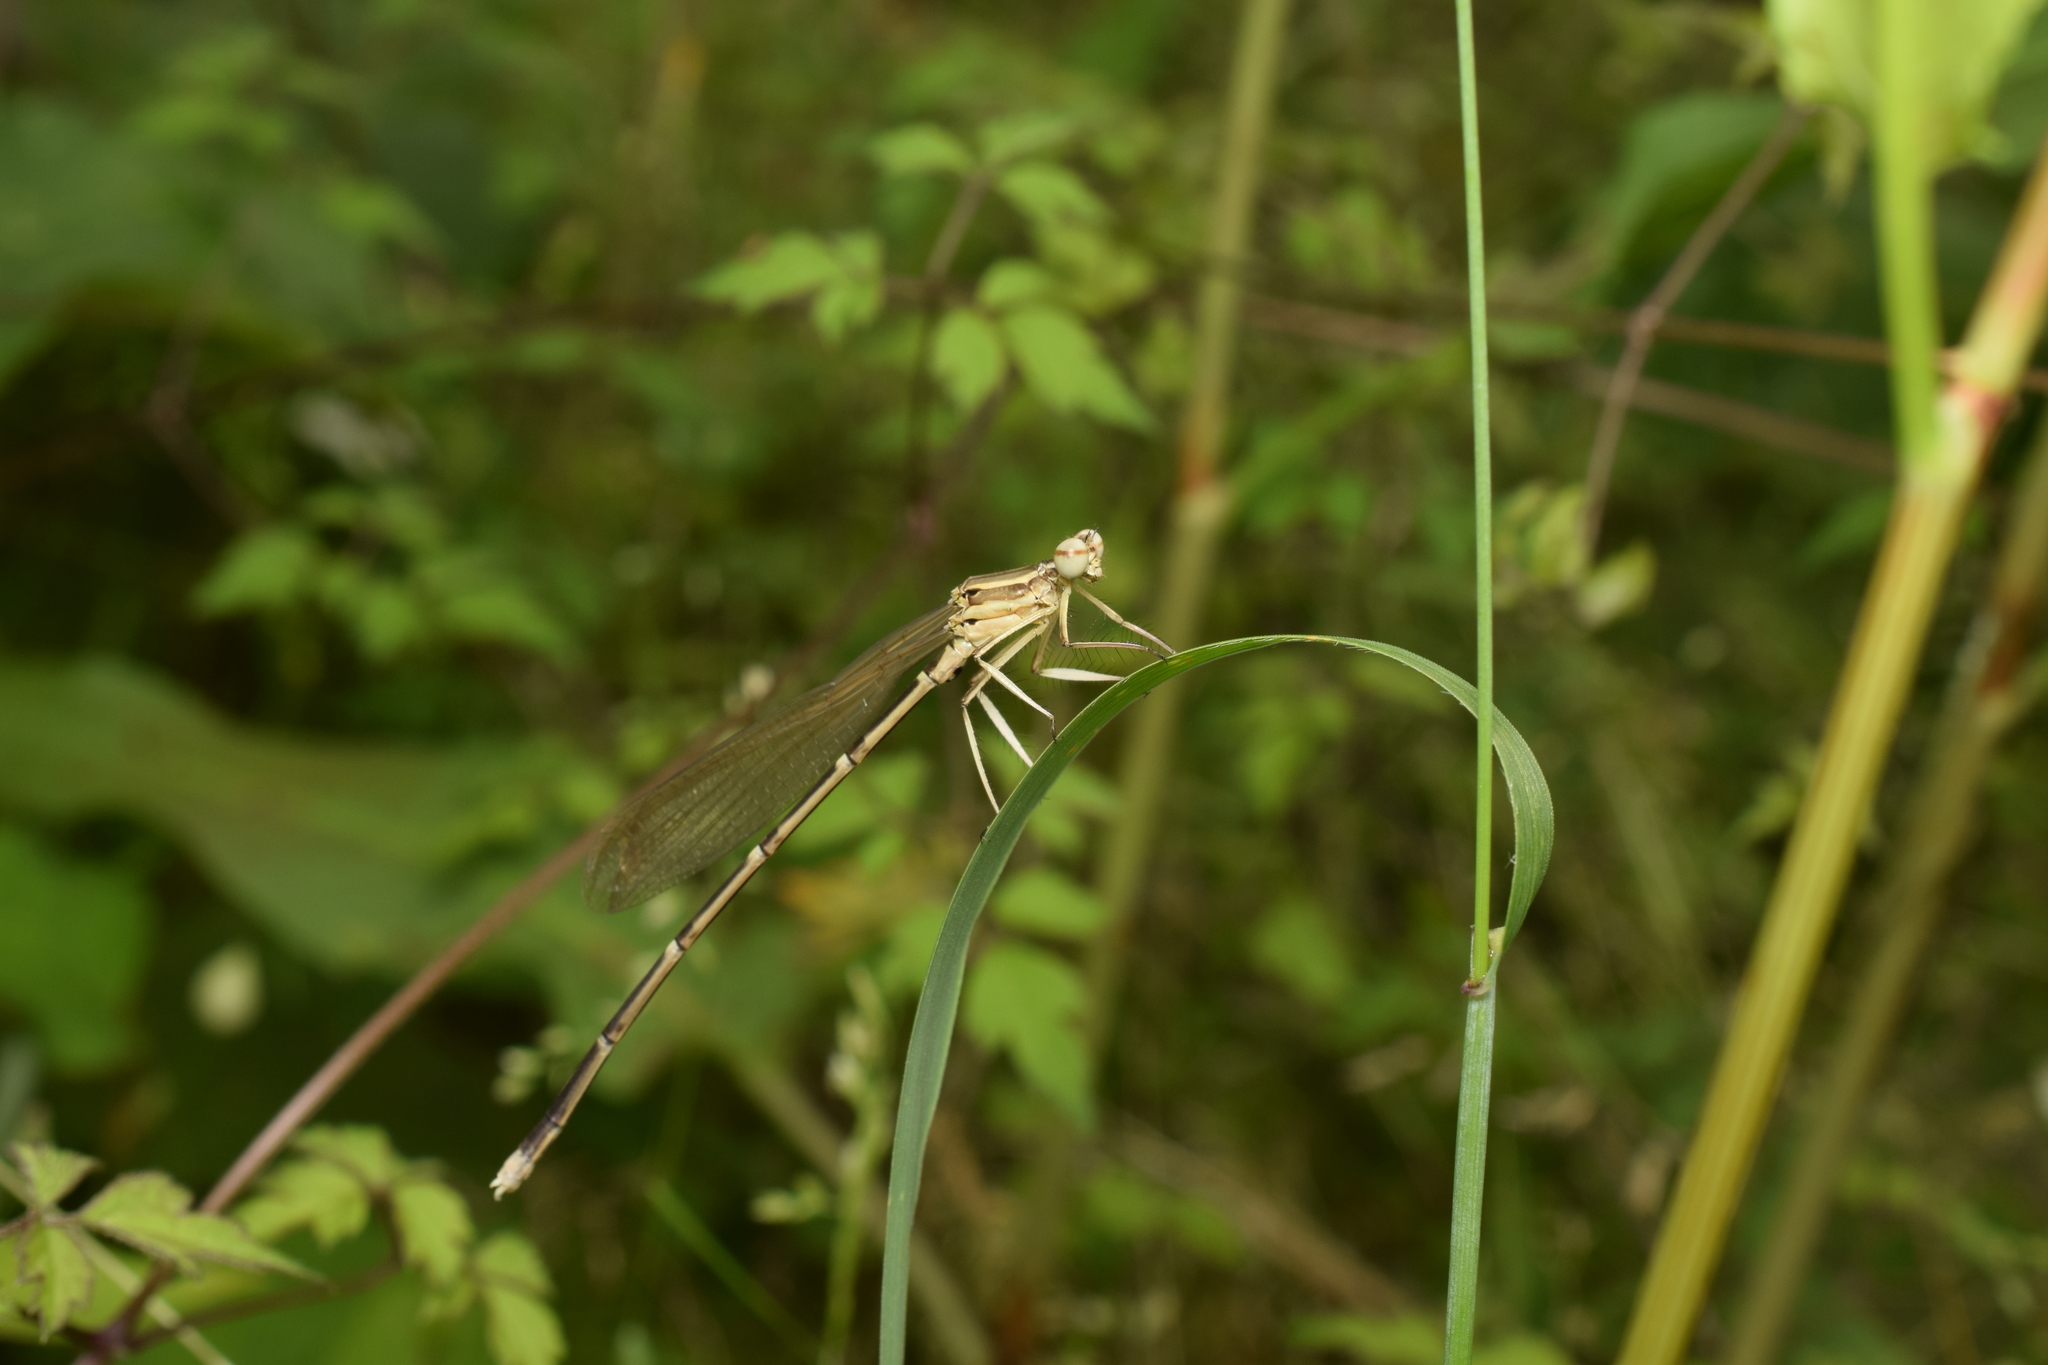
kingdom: Animalia
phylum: Arthropoda
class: Insecta
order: Odonata
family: Platycnemididae
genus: Pseudocopera
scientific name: Pseudocopera annulata
